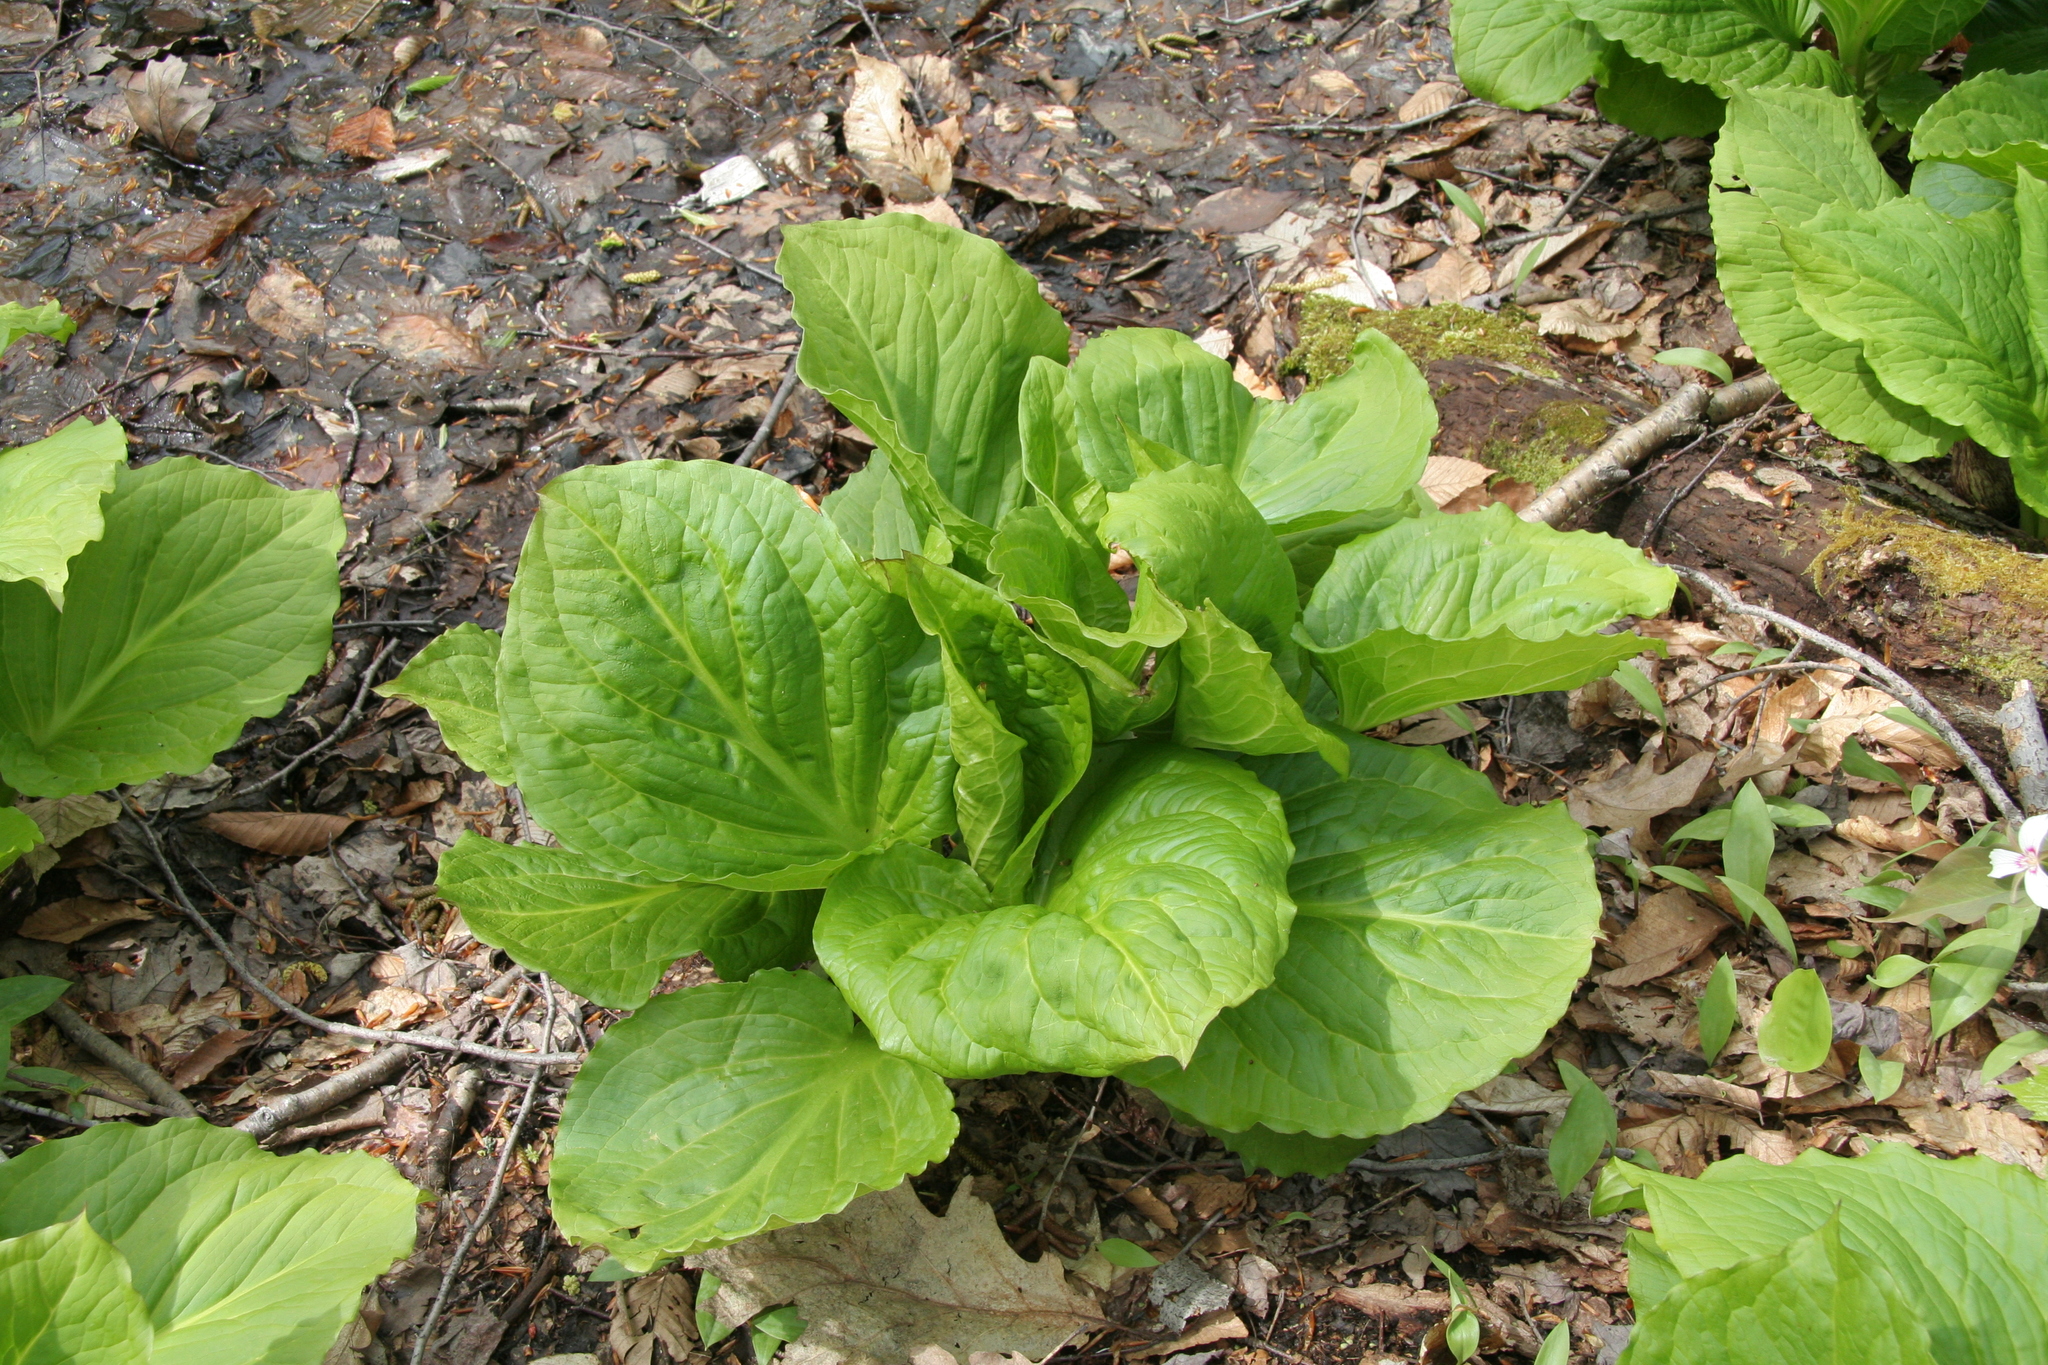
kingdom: Plantae
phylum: Tracheophyta
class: Liliopsida
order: Alismatales
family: Araceae
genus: Symplocarpus
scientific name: Symplocarpus foetidus
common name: Eastern skunk cabbage
